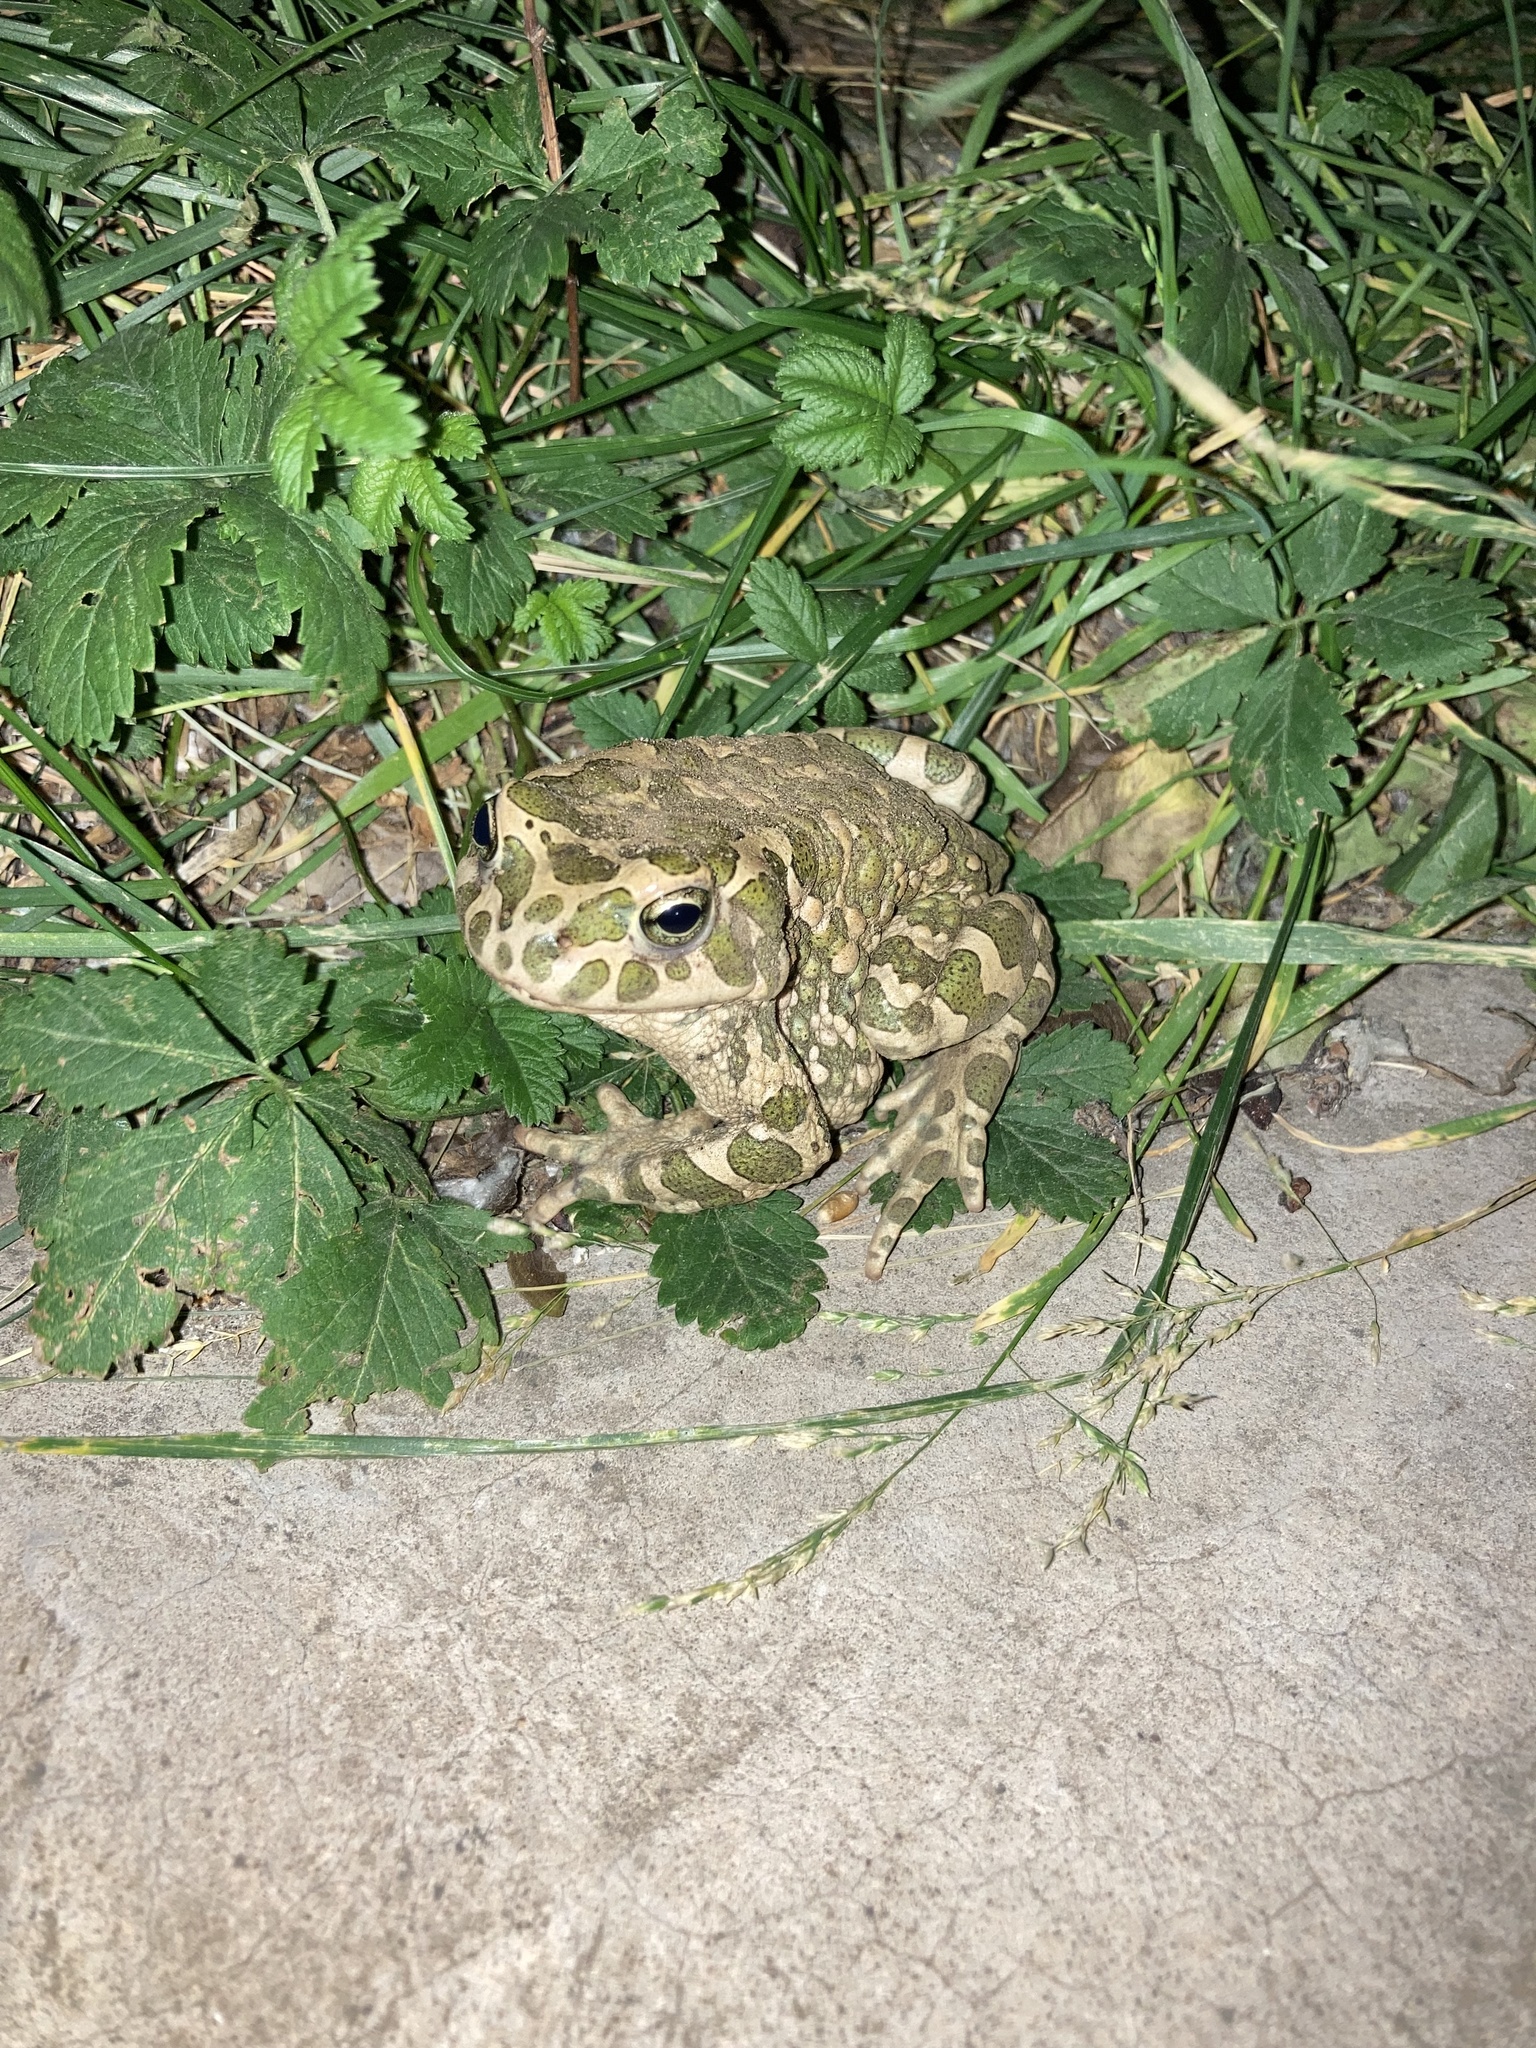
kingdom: Animalia
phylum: Chordata
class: Amphibia
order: Anura
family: Bufonidae
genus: Bufotes
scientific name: Bufotes viridis
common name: European green toad
